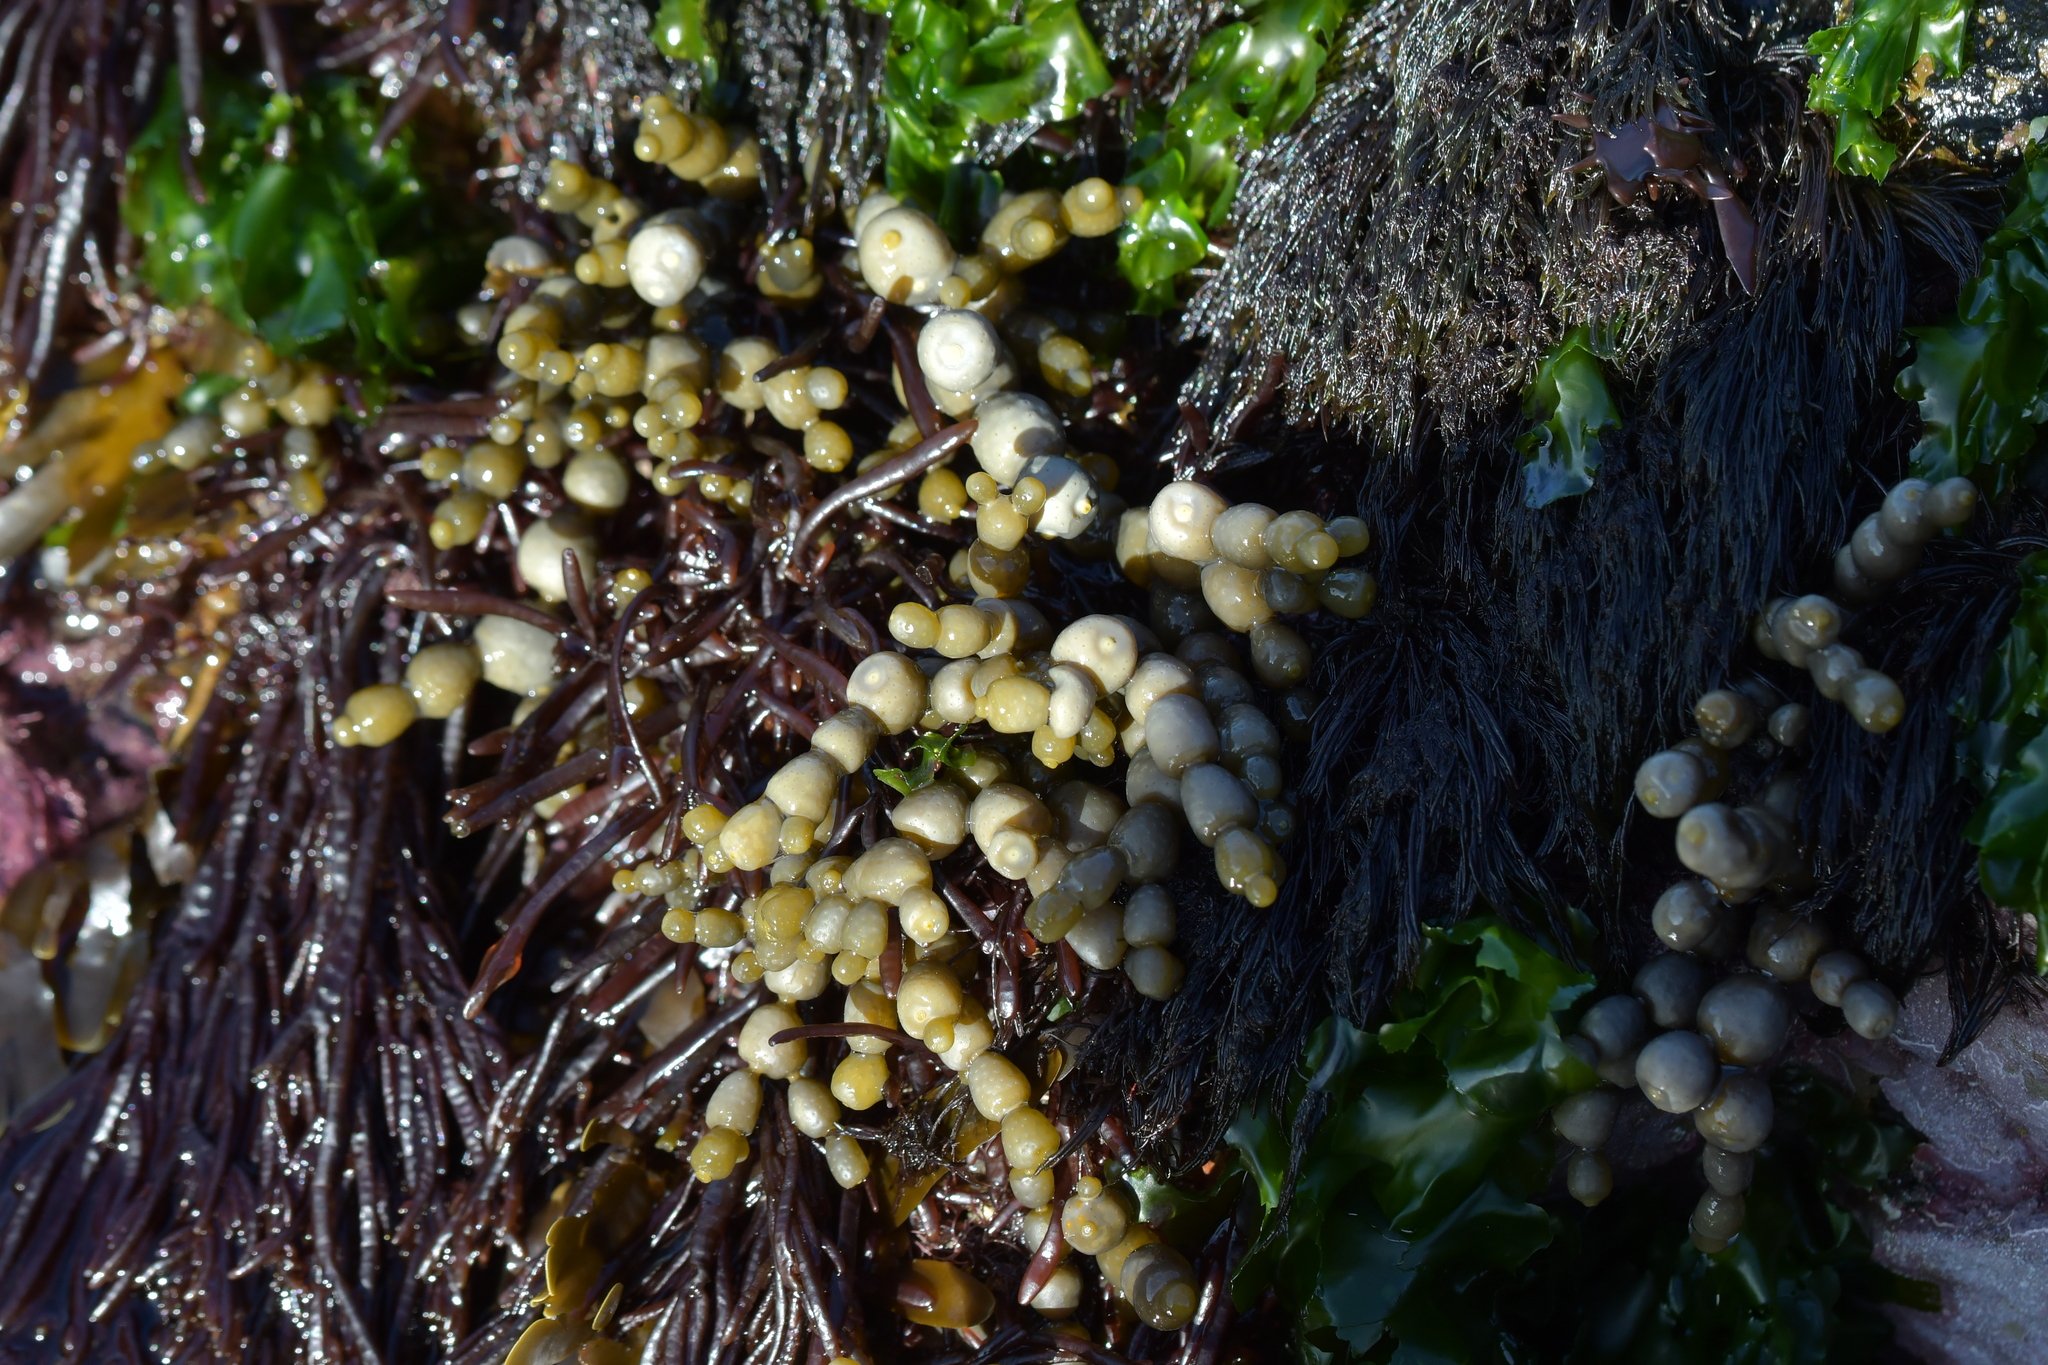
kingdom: Chromista
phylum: Ochrophyta
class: Phaeophyceae
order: Fucales
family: Hormosiraceae
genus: Hormosira
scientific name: Hormosira banksii
